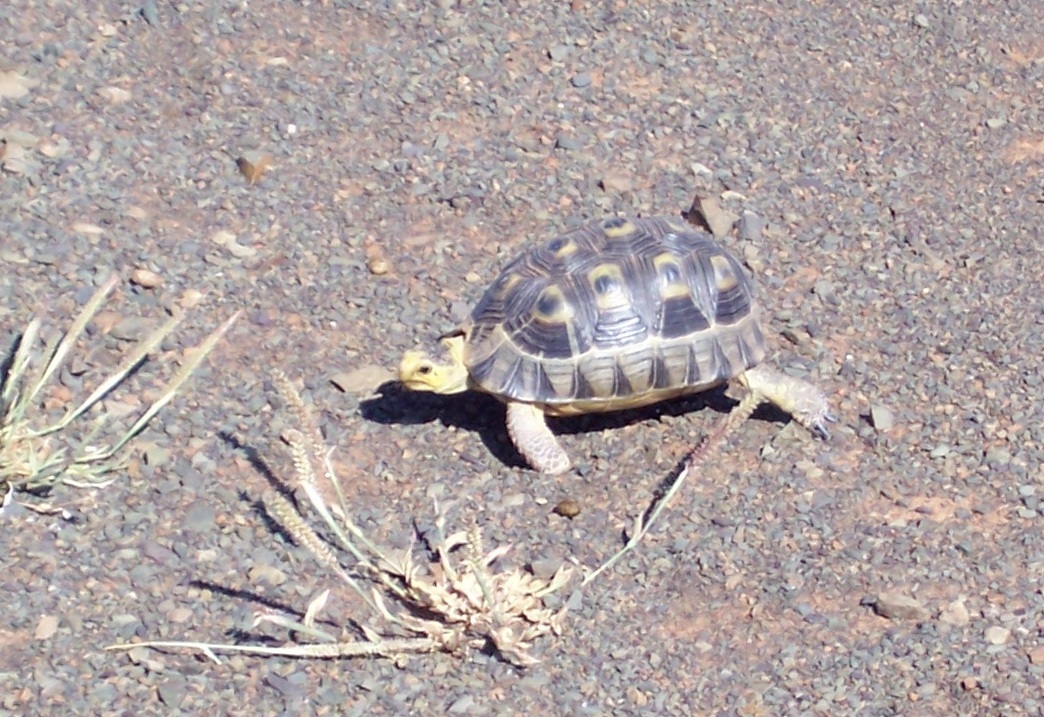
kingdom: Animalia
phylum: Chordata
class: Testudines
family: Testudinidae
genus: Chersina
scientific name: Chersina angulata
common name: South african bowsprit tortoise
